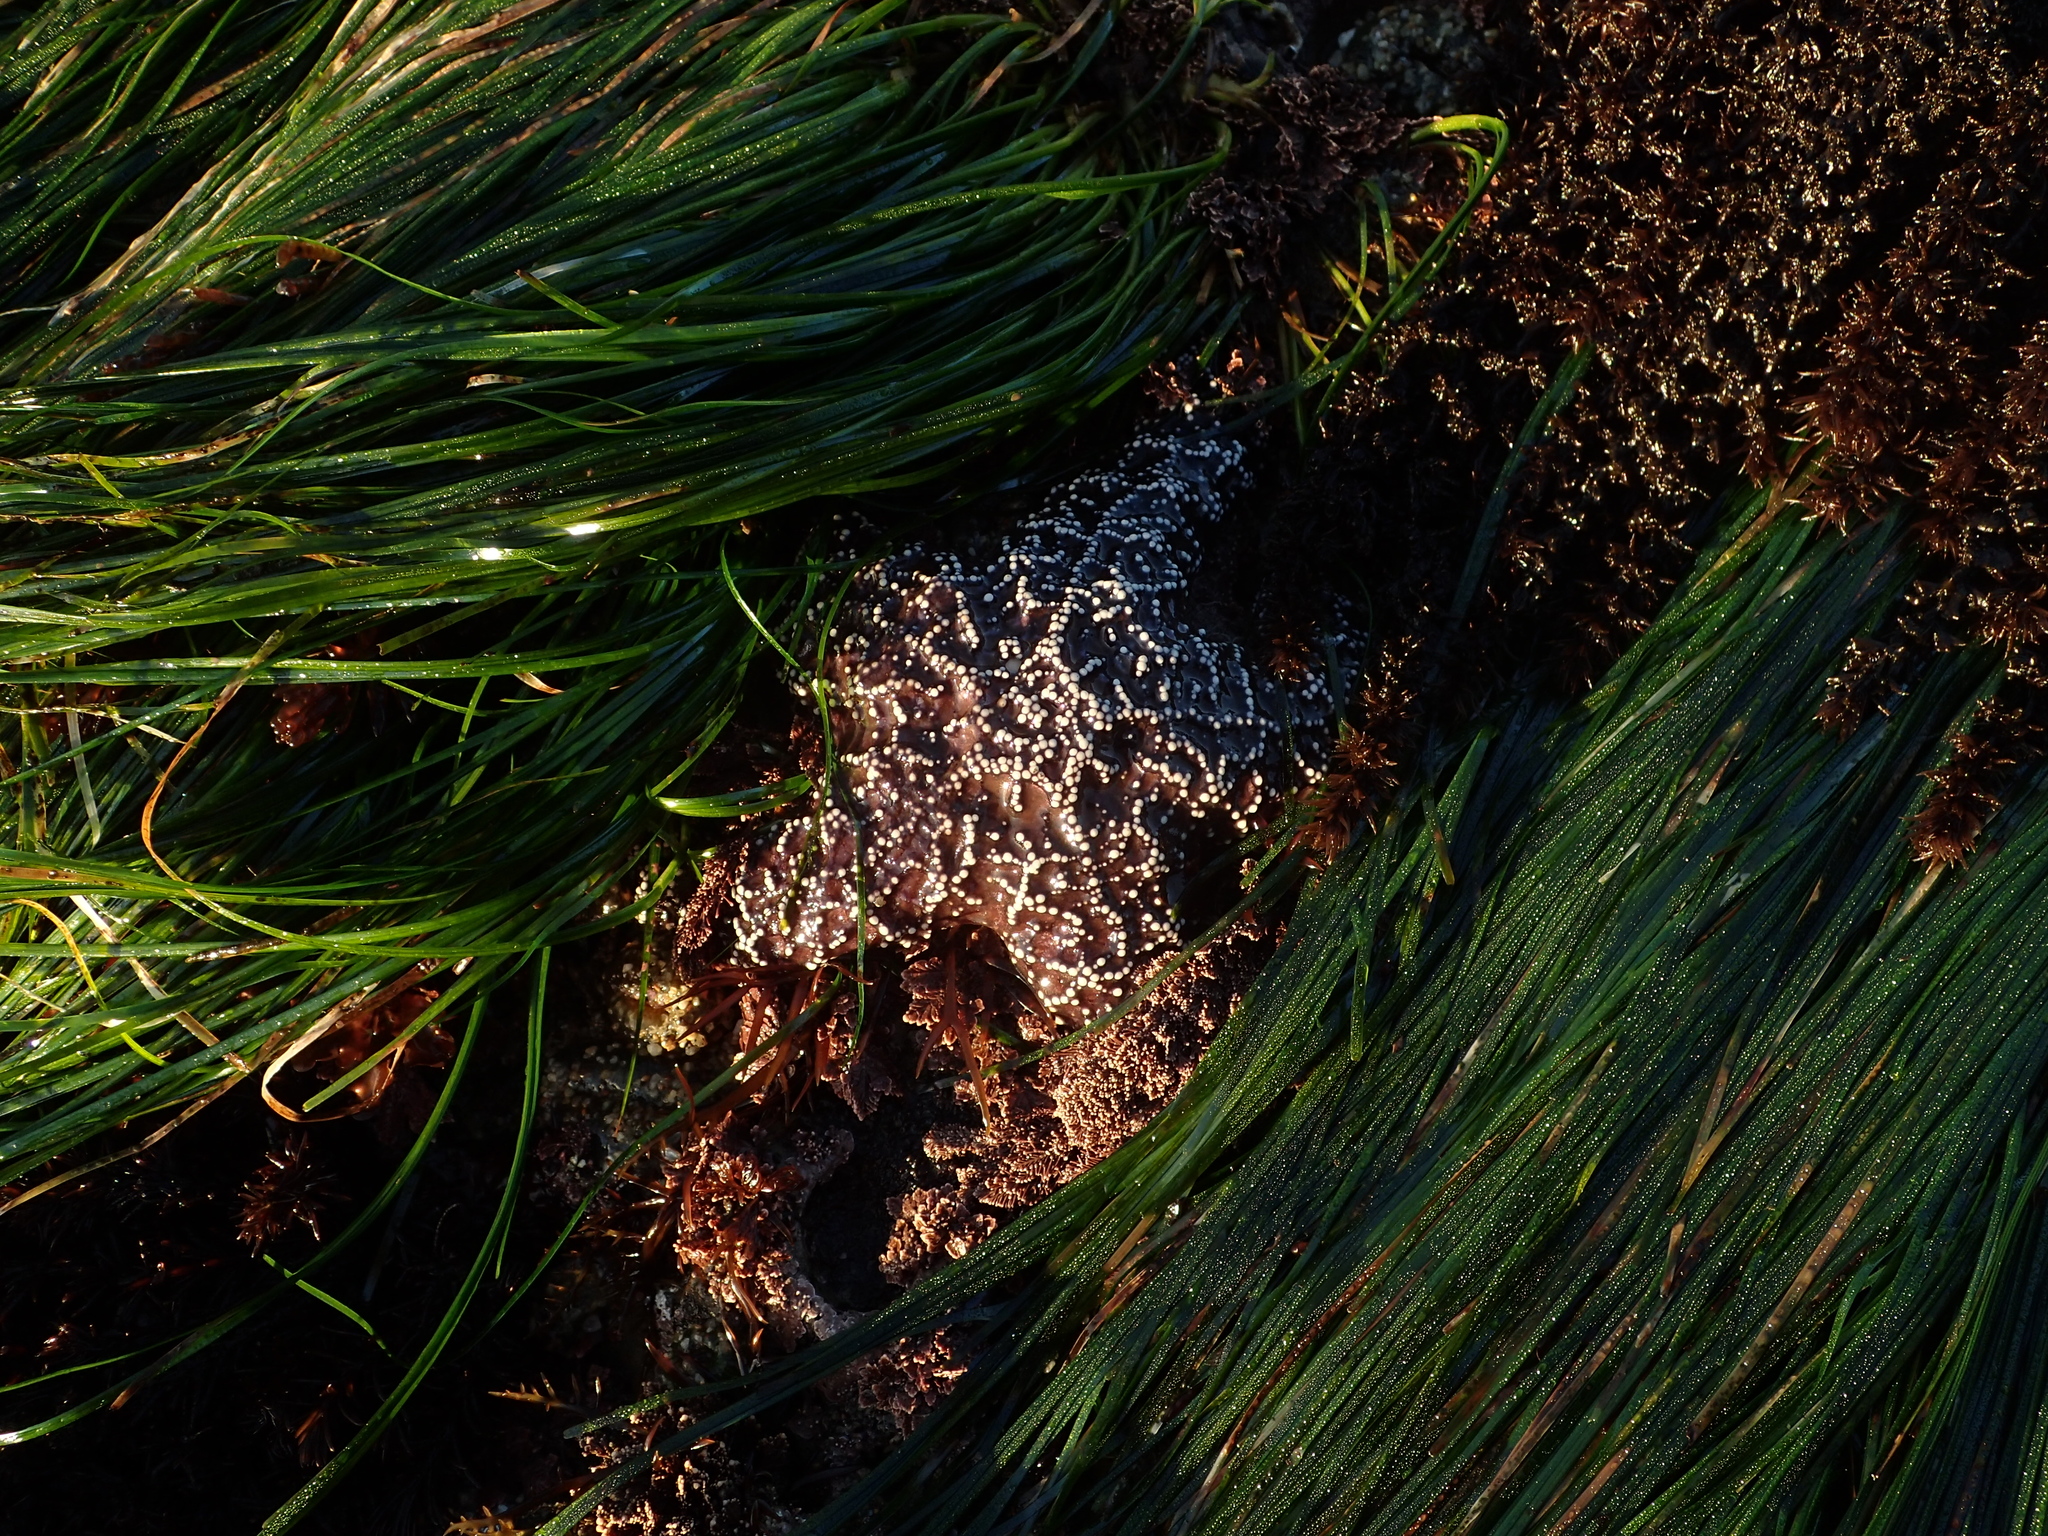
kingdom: Animalia
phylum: Echinodermata
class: Asteroidea
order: Forcipulatida
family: Asteriidae
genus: Pisaster
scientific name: Pisaster ochraceus
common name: Ochre stars
